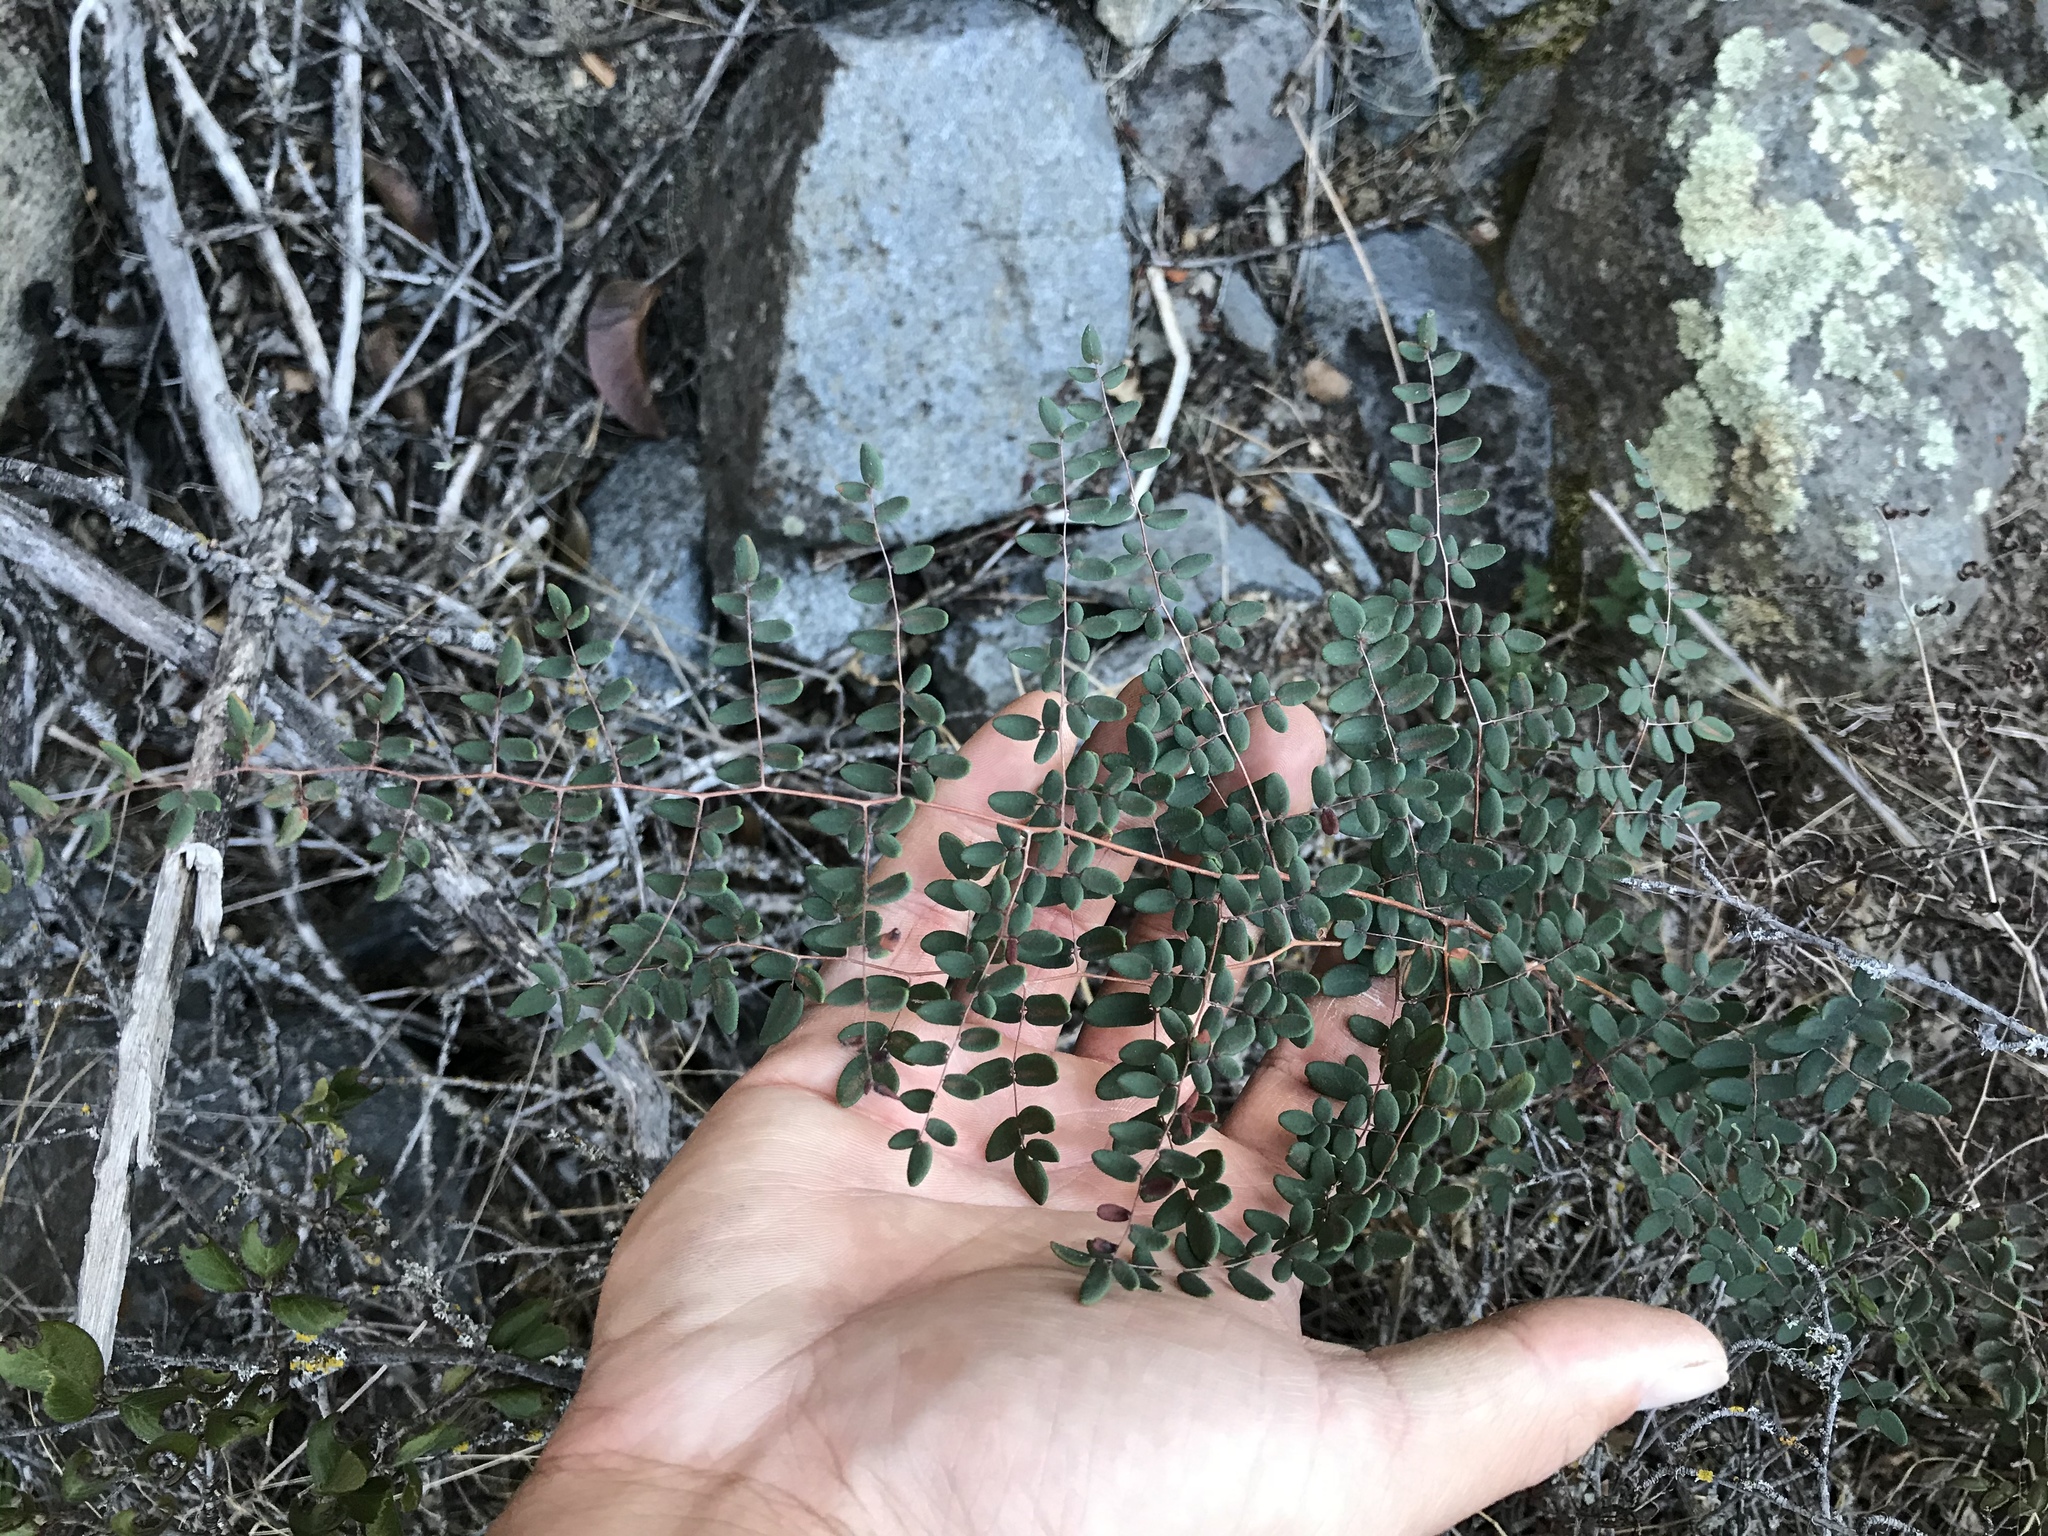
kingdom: Plantae
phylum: Tracheophyta
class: Polypodiopsida
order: Polypodiales
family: Pteridaceae
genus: Pellaea
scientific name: Pellaea andromedifolia
